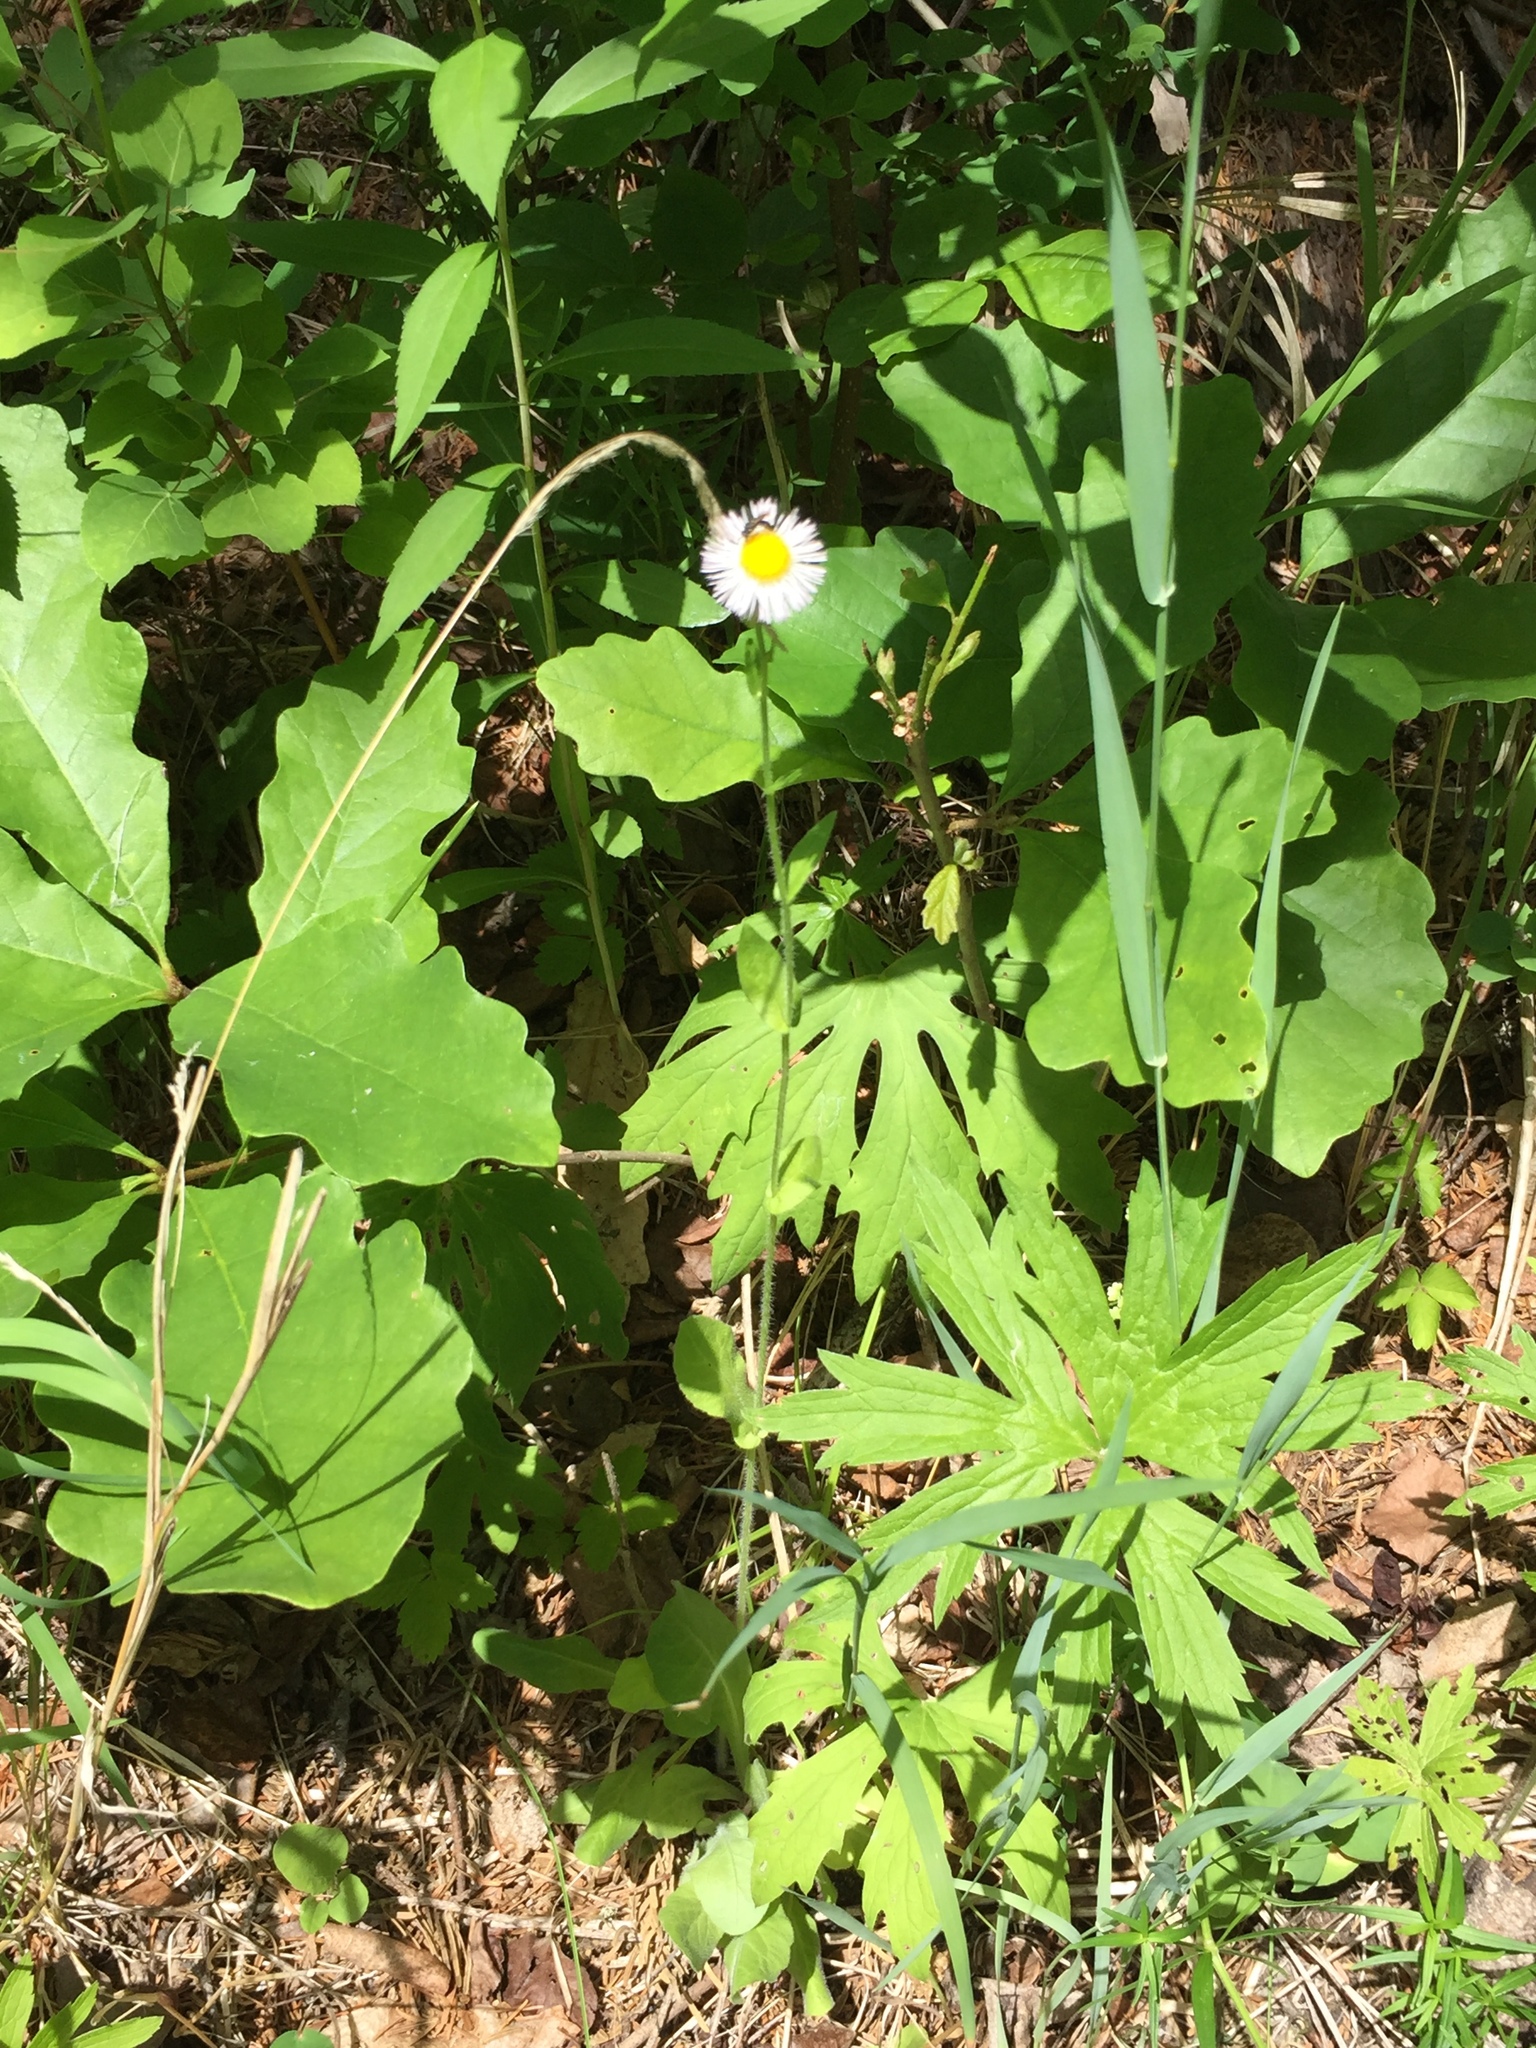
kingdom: Plantae
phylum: Tracheophyta
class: Magnoliopsida
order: Asterales
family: Asteraceae
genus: Erigeron
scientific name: Erigeron philadelphicus
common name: Robin's-plantain
